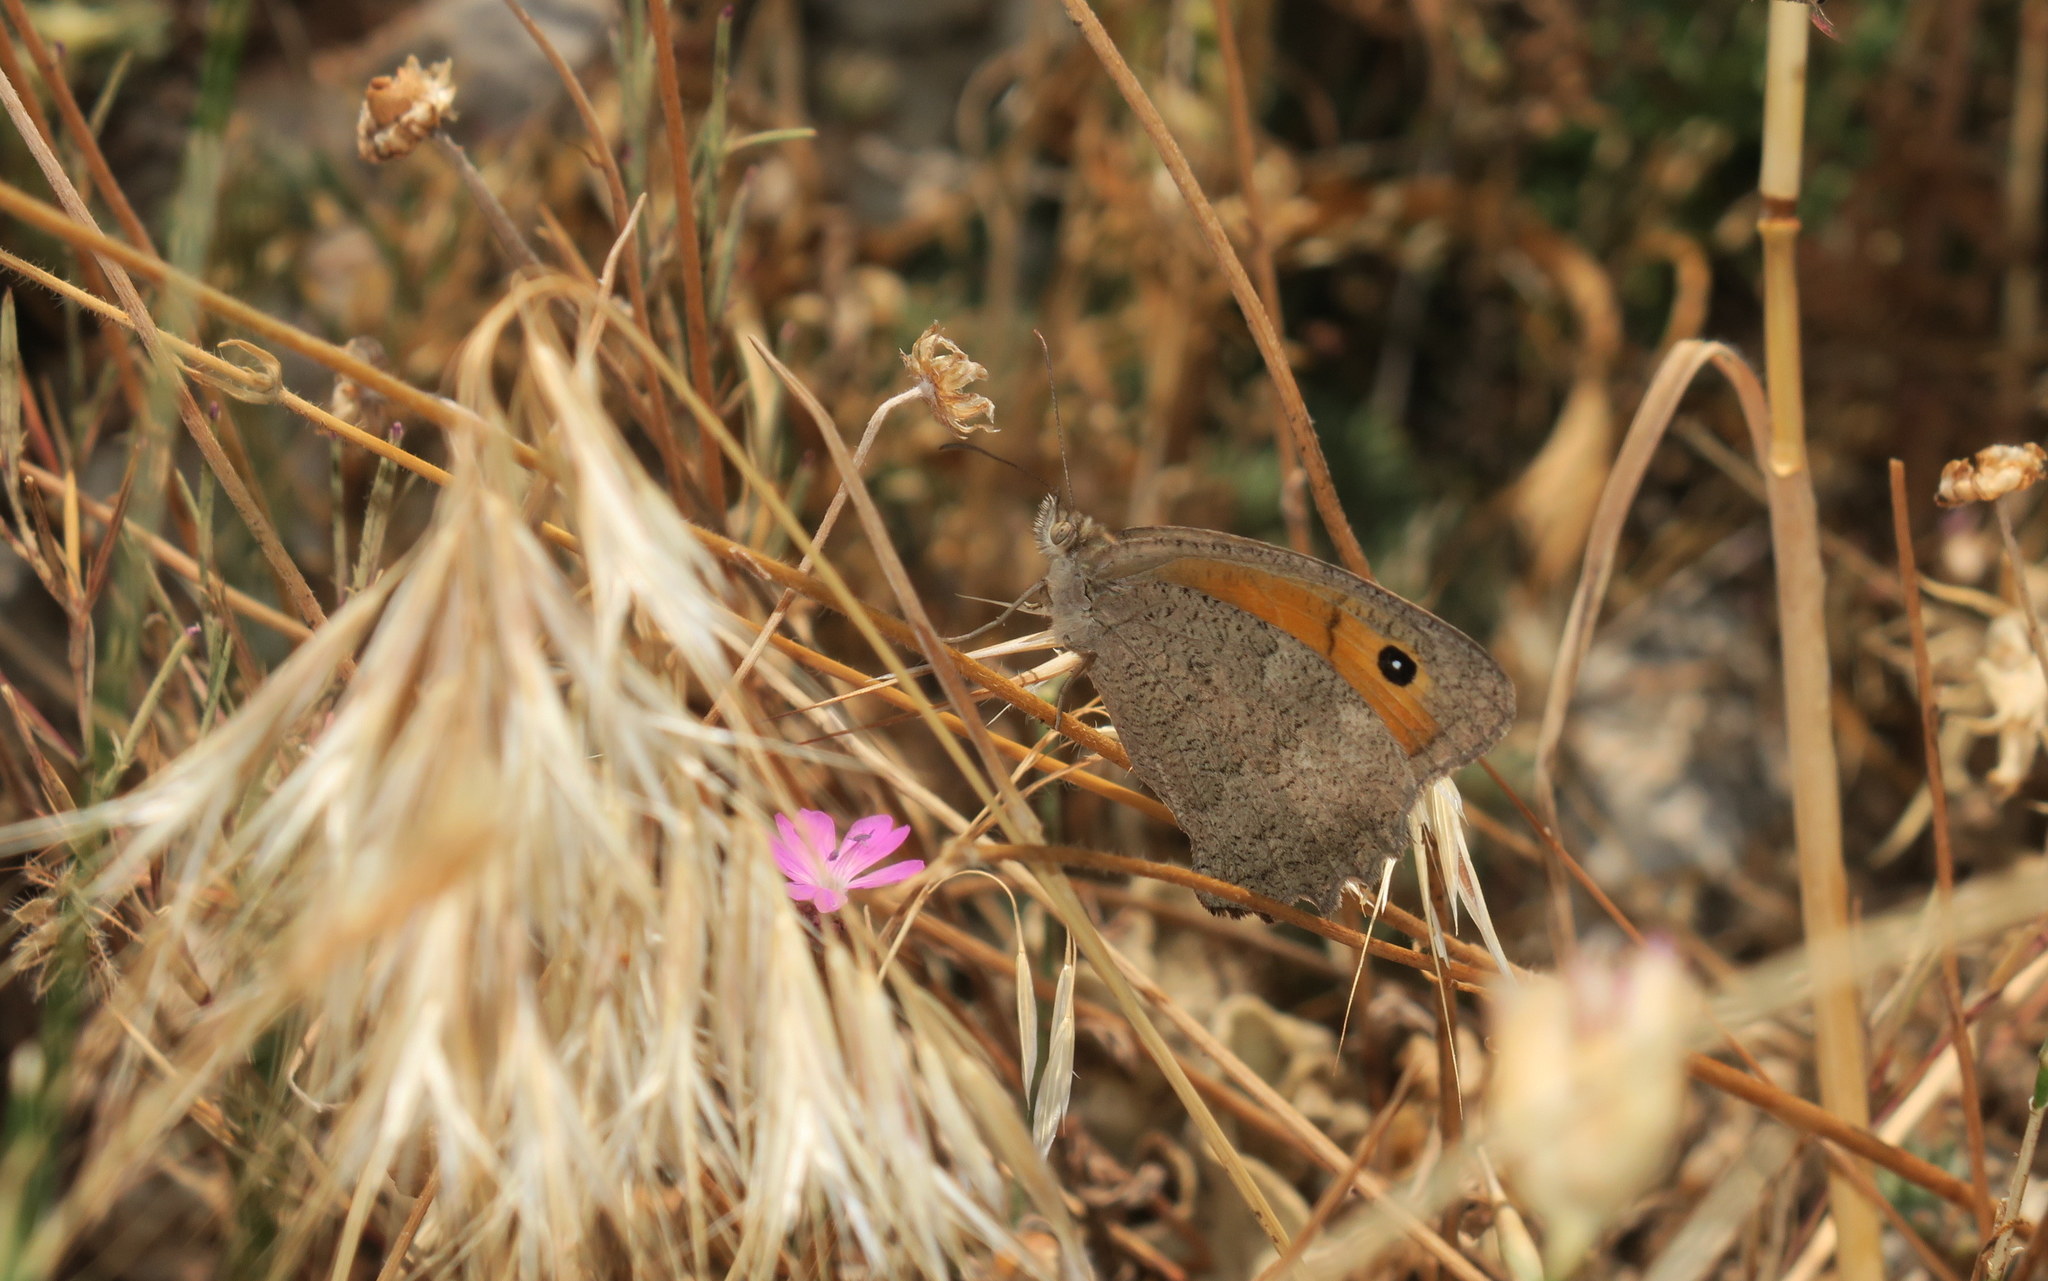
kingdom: Animalia
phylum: Arthropoda
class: Insecta
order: Lepidoptera
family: Nymphalidae
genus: Hyponephele
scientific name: Hyponephele lupinus
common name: Oriental meadow brown
